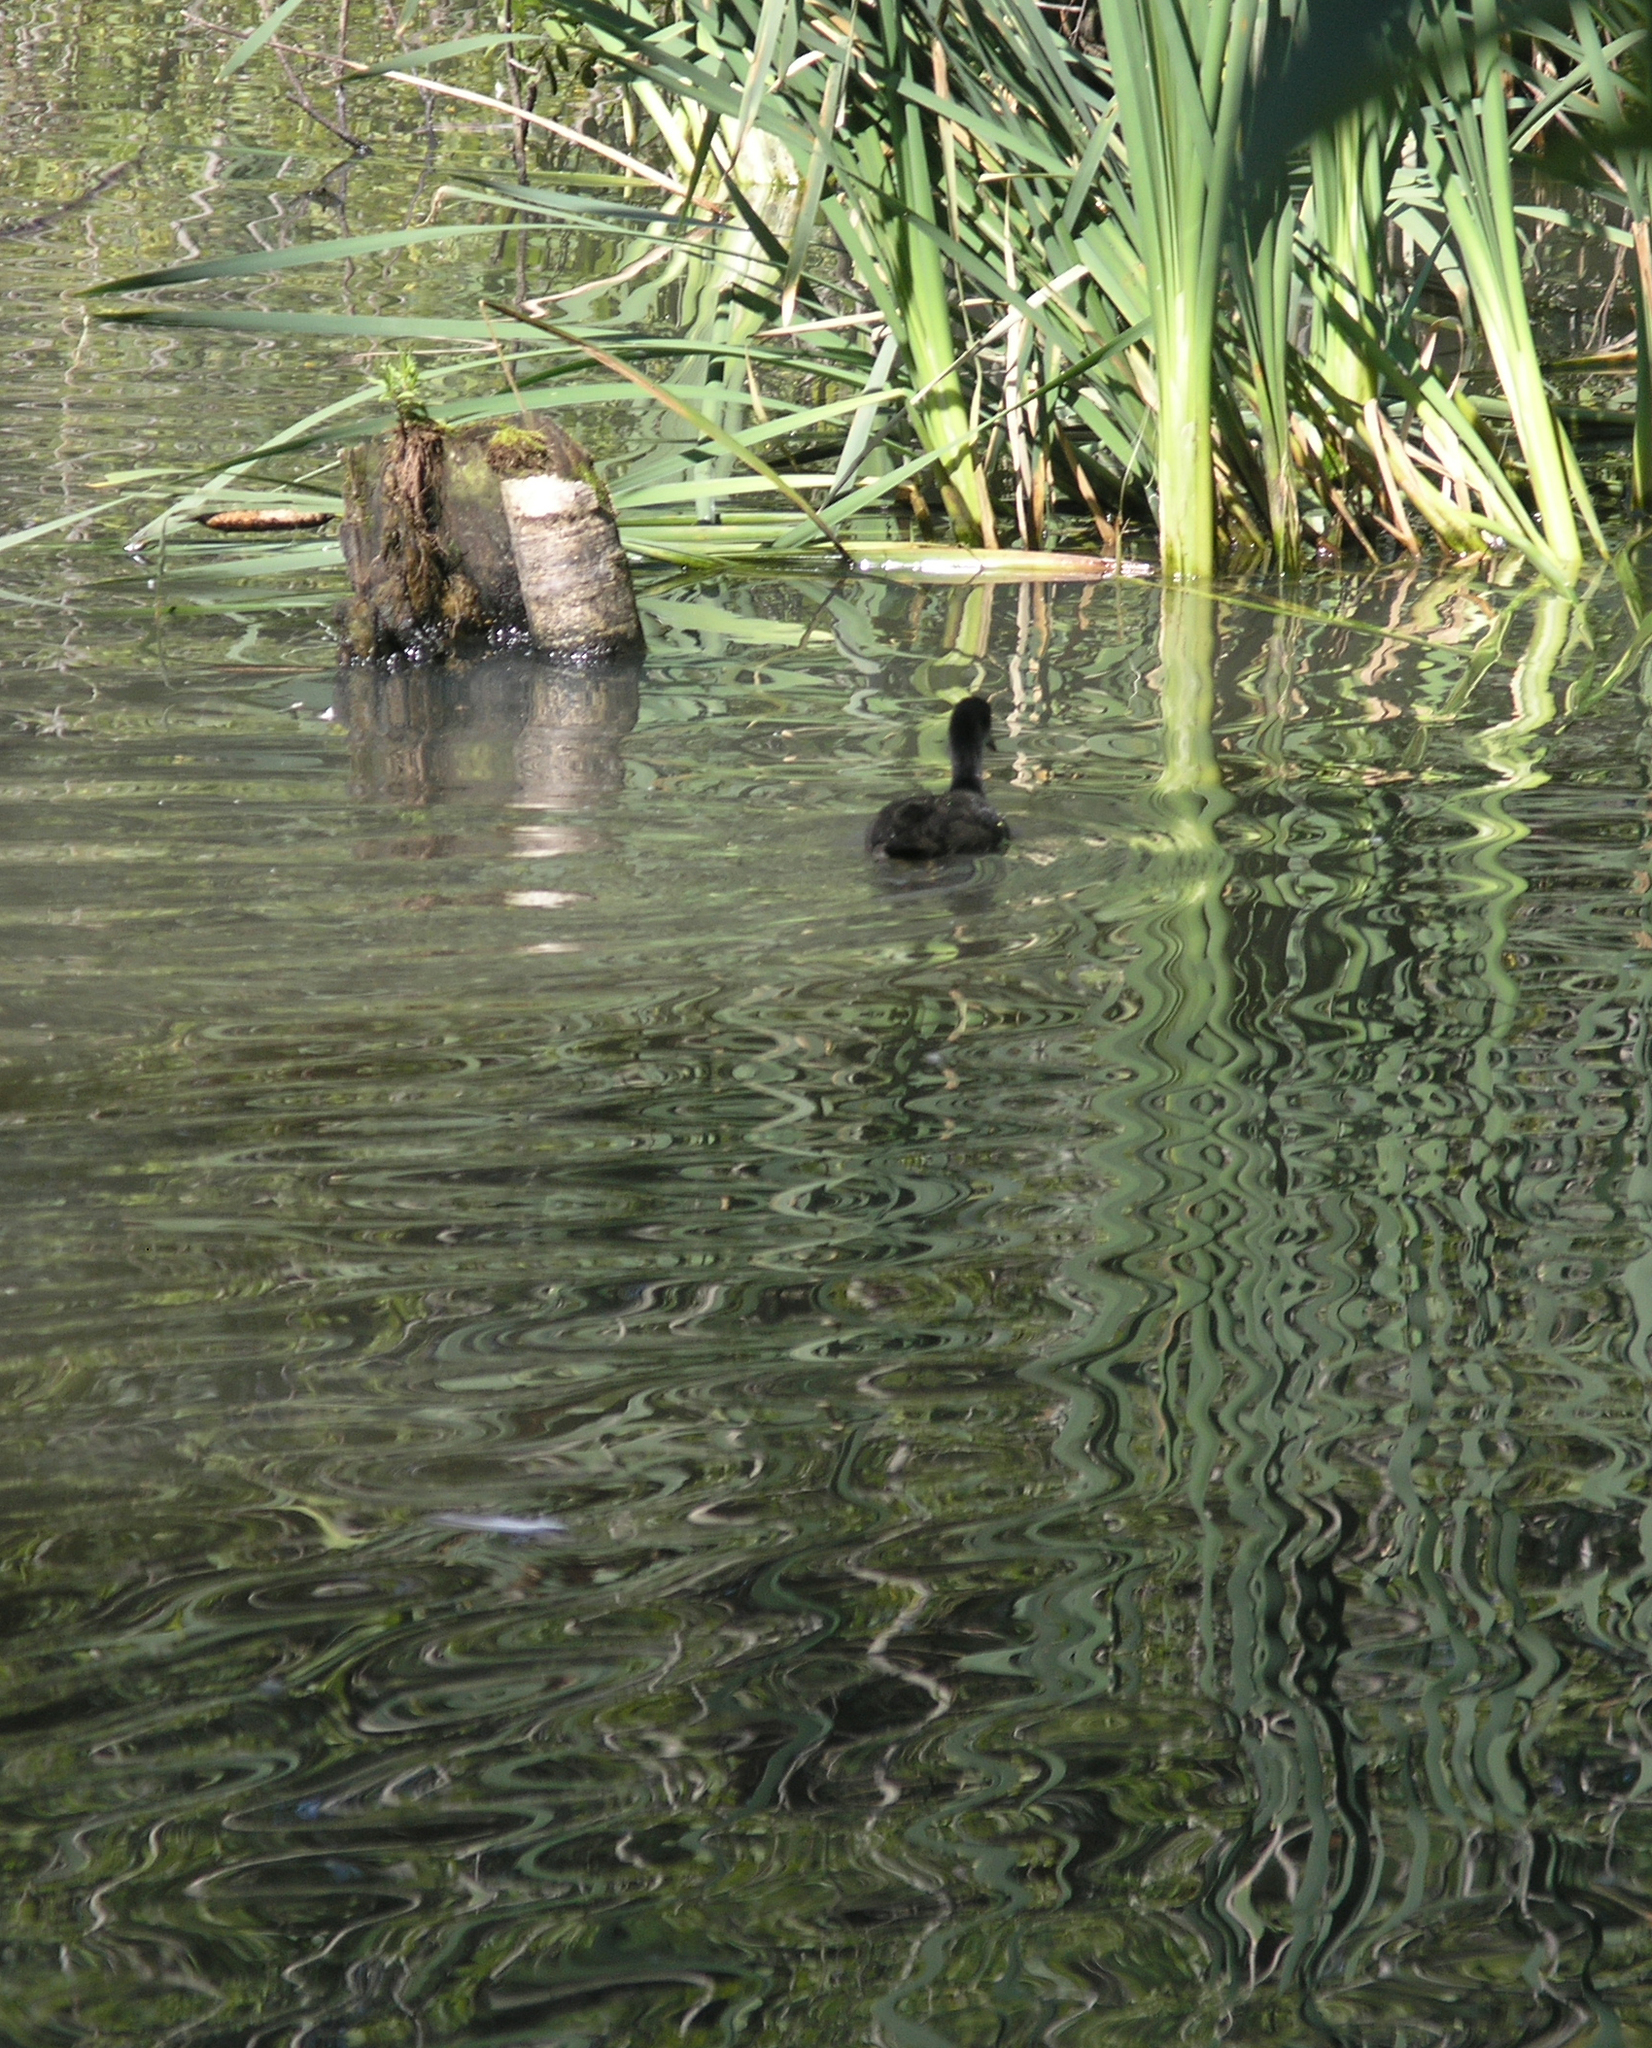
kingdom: Animalia
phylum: Chordata
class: Aves
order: Gruiformes
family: Rallidae
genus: Fulica
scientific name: Fulica atra
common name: Eurasian coot
